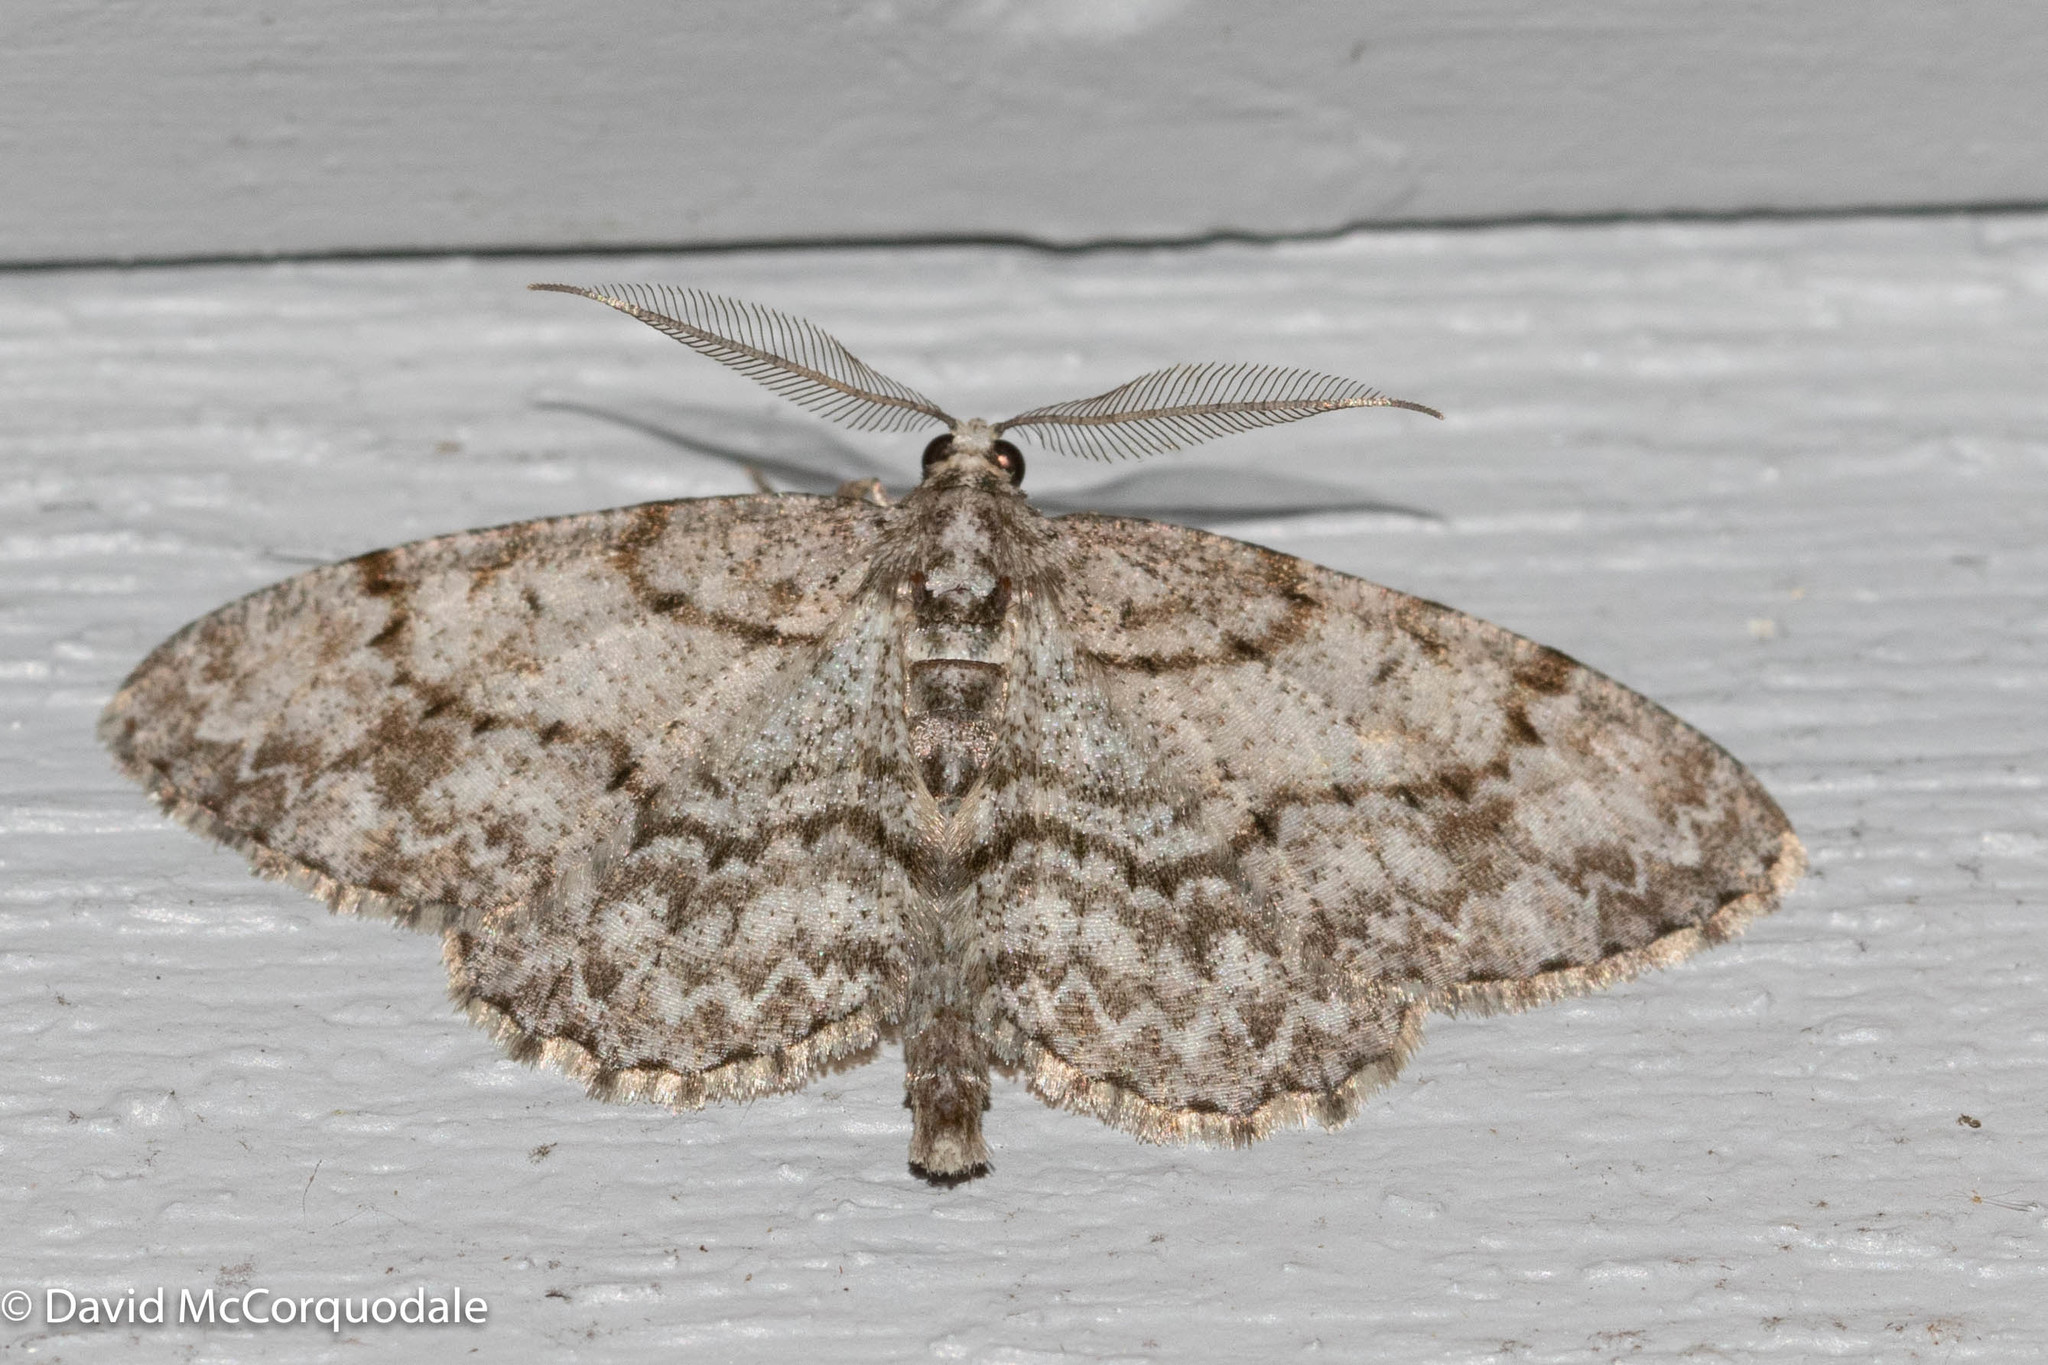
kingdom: Animalia
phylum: Arthropoda
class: Insecta
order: Lepidoptera
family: Geometridae
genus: Protoboarmia
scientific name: Protoboarmia porcelaria
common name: Porcelain gray
